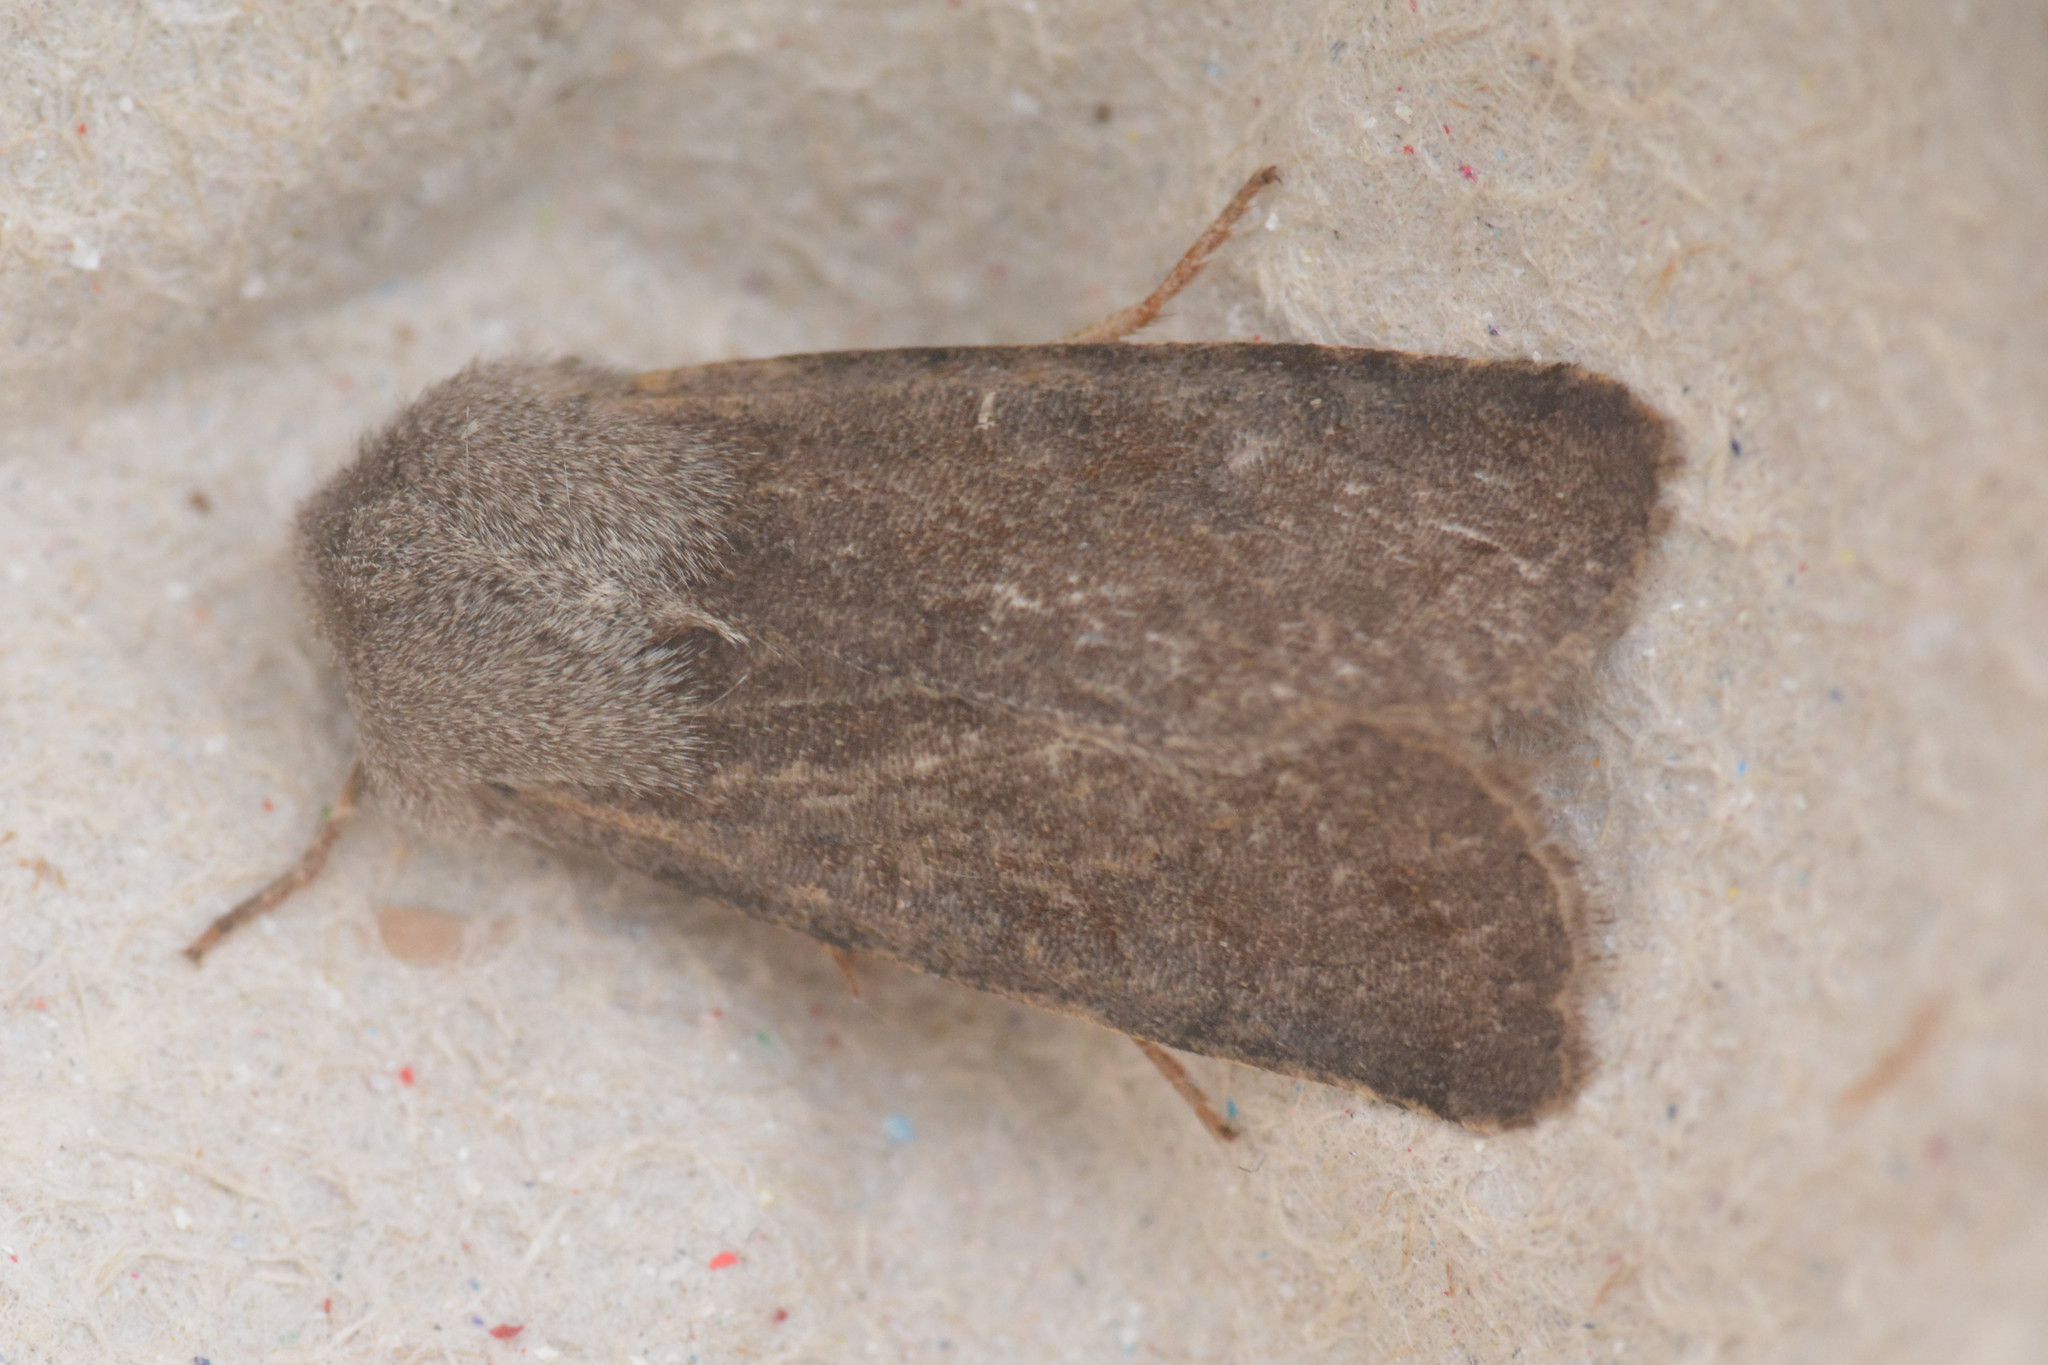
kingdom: Animalia
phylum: Arthropoda
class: Insecta
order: Lepidoptera
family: Noctuidae
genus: Orthosia
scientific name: Orthosia incerta
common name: Clouded drab
